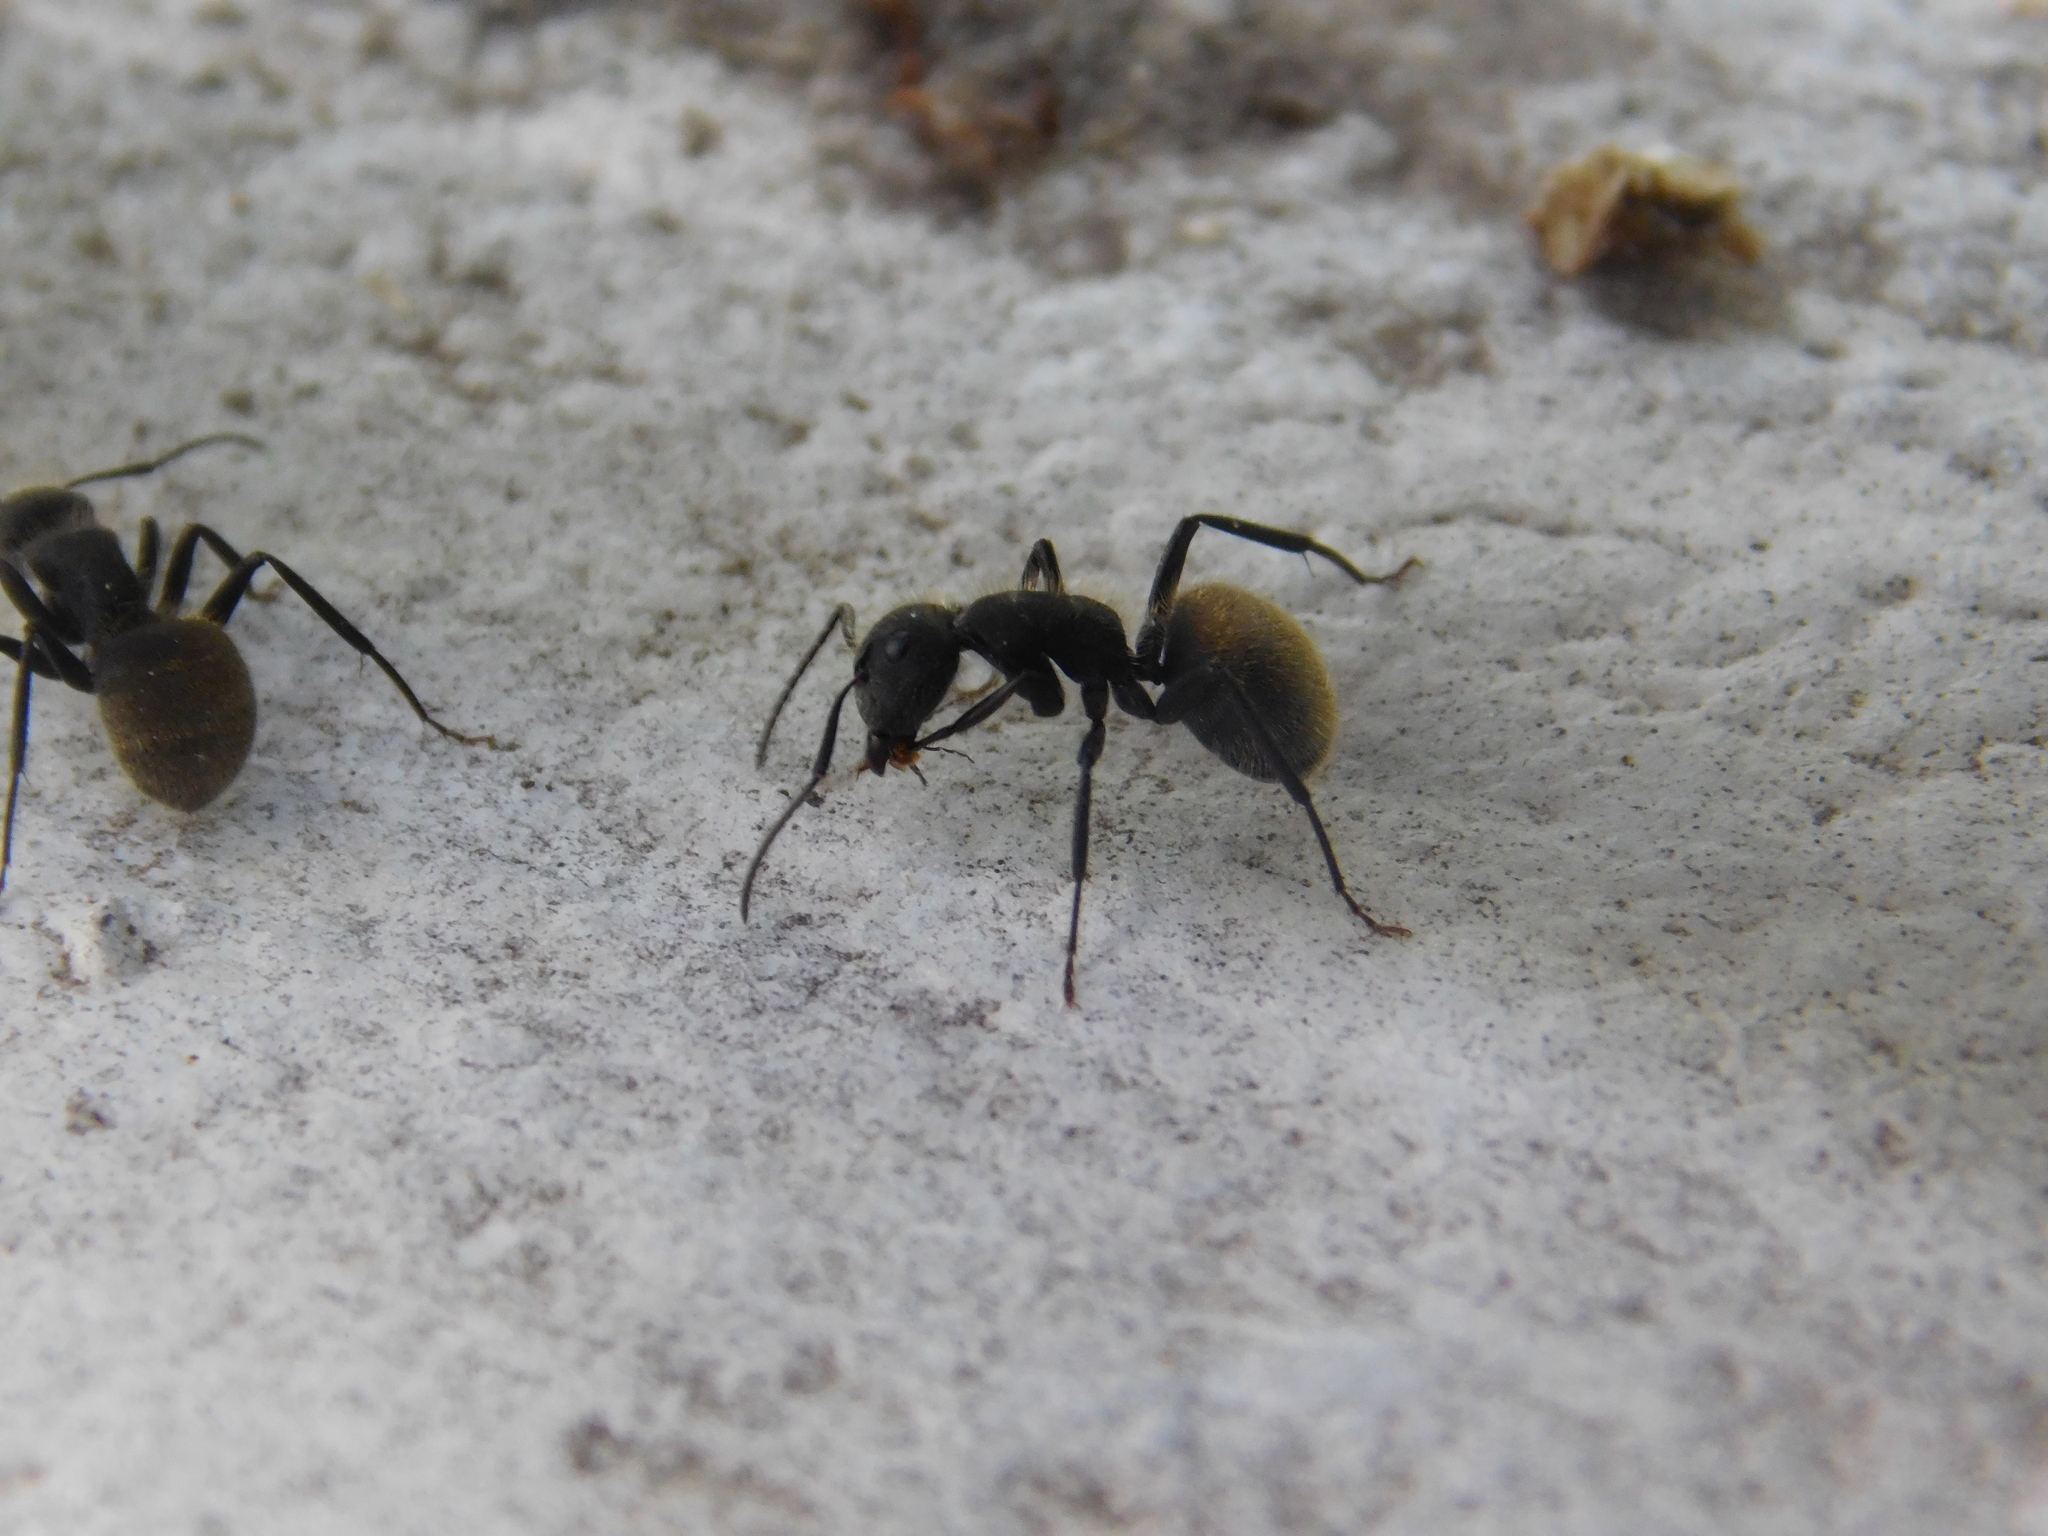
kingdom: Animalia
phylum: Arthropoda
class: Insecta
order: Hymenoptera
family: Formicidae
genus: Camponotus
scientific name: Camponotus mus
